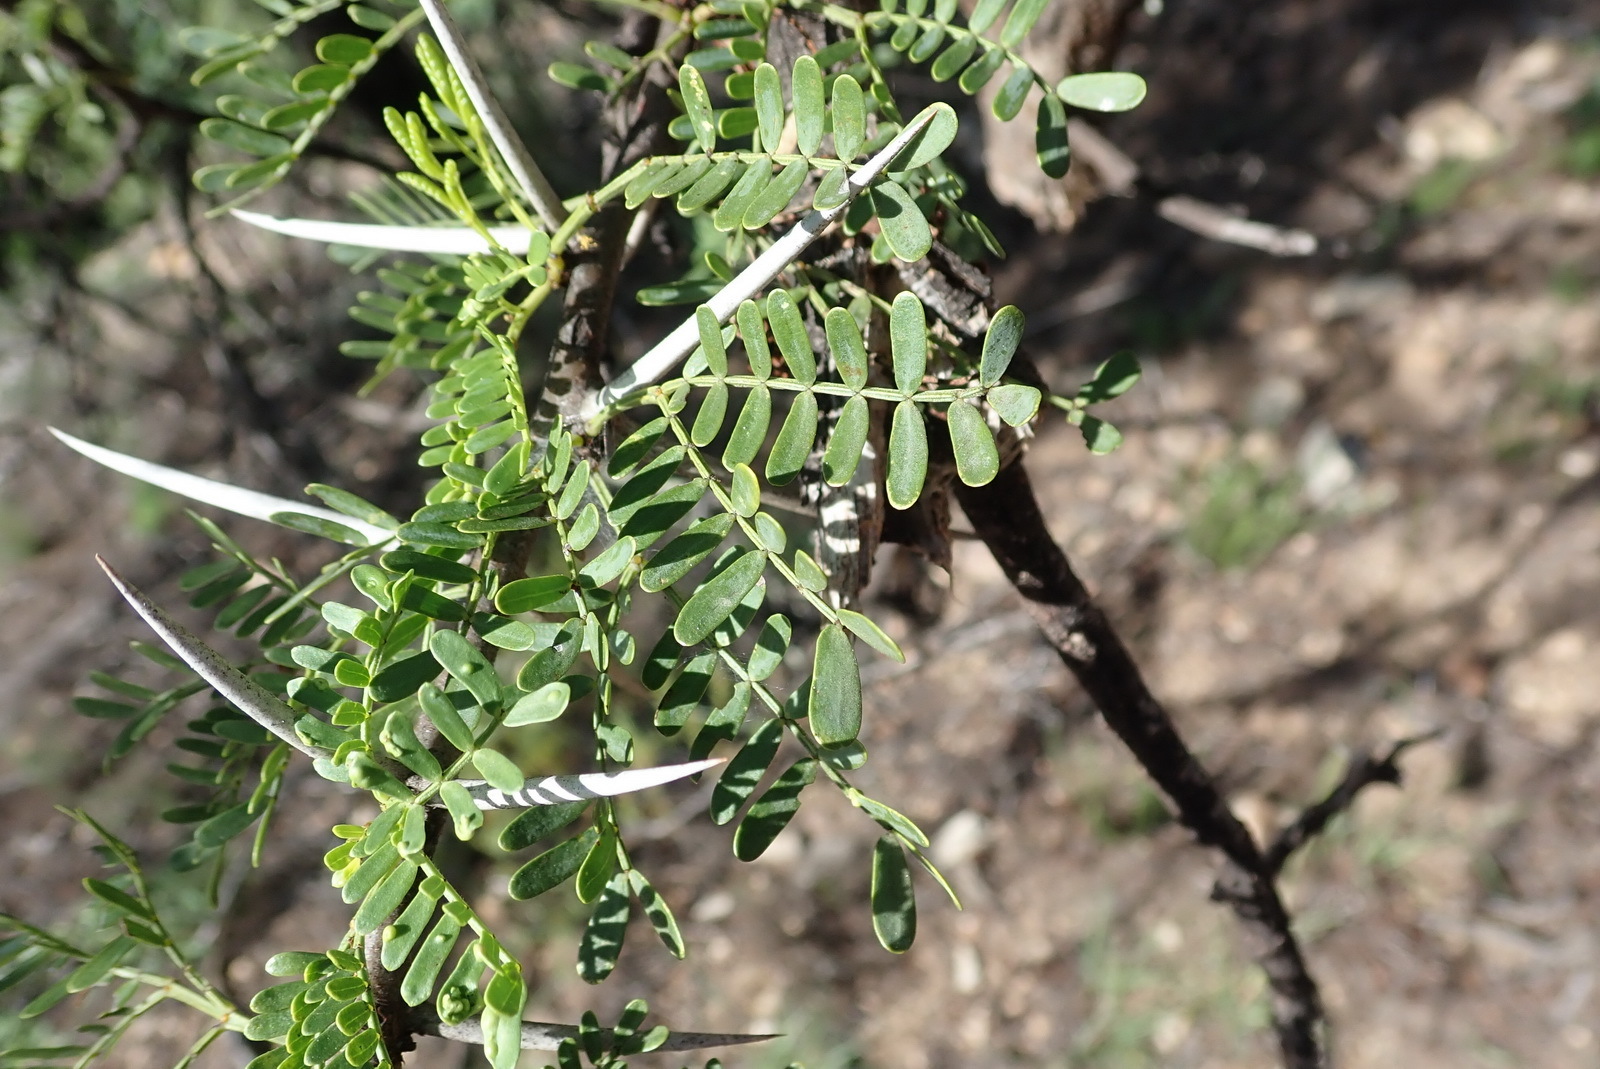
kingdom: Plantae
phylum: Tracheophyta
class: Magnoliopsida
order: Fabales
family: Fabaceae
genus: Vachellia
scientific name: Vachellia karroo
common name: Sweet thorn
